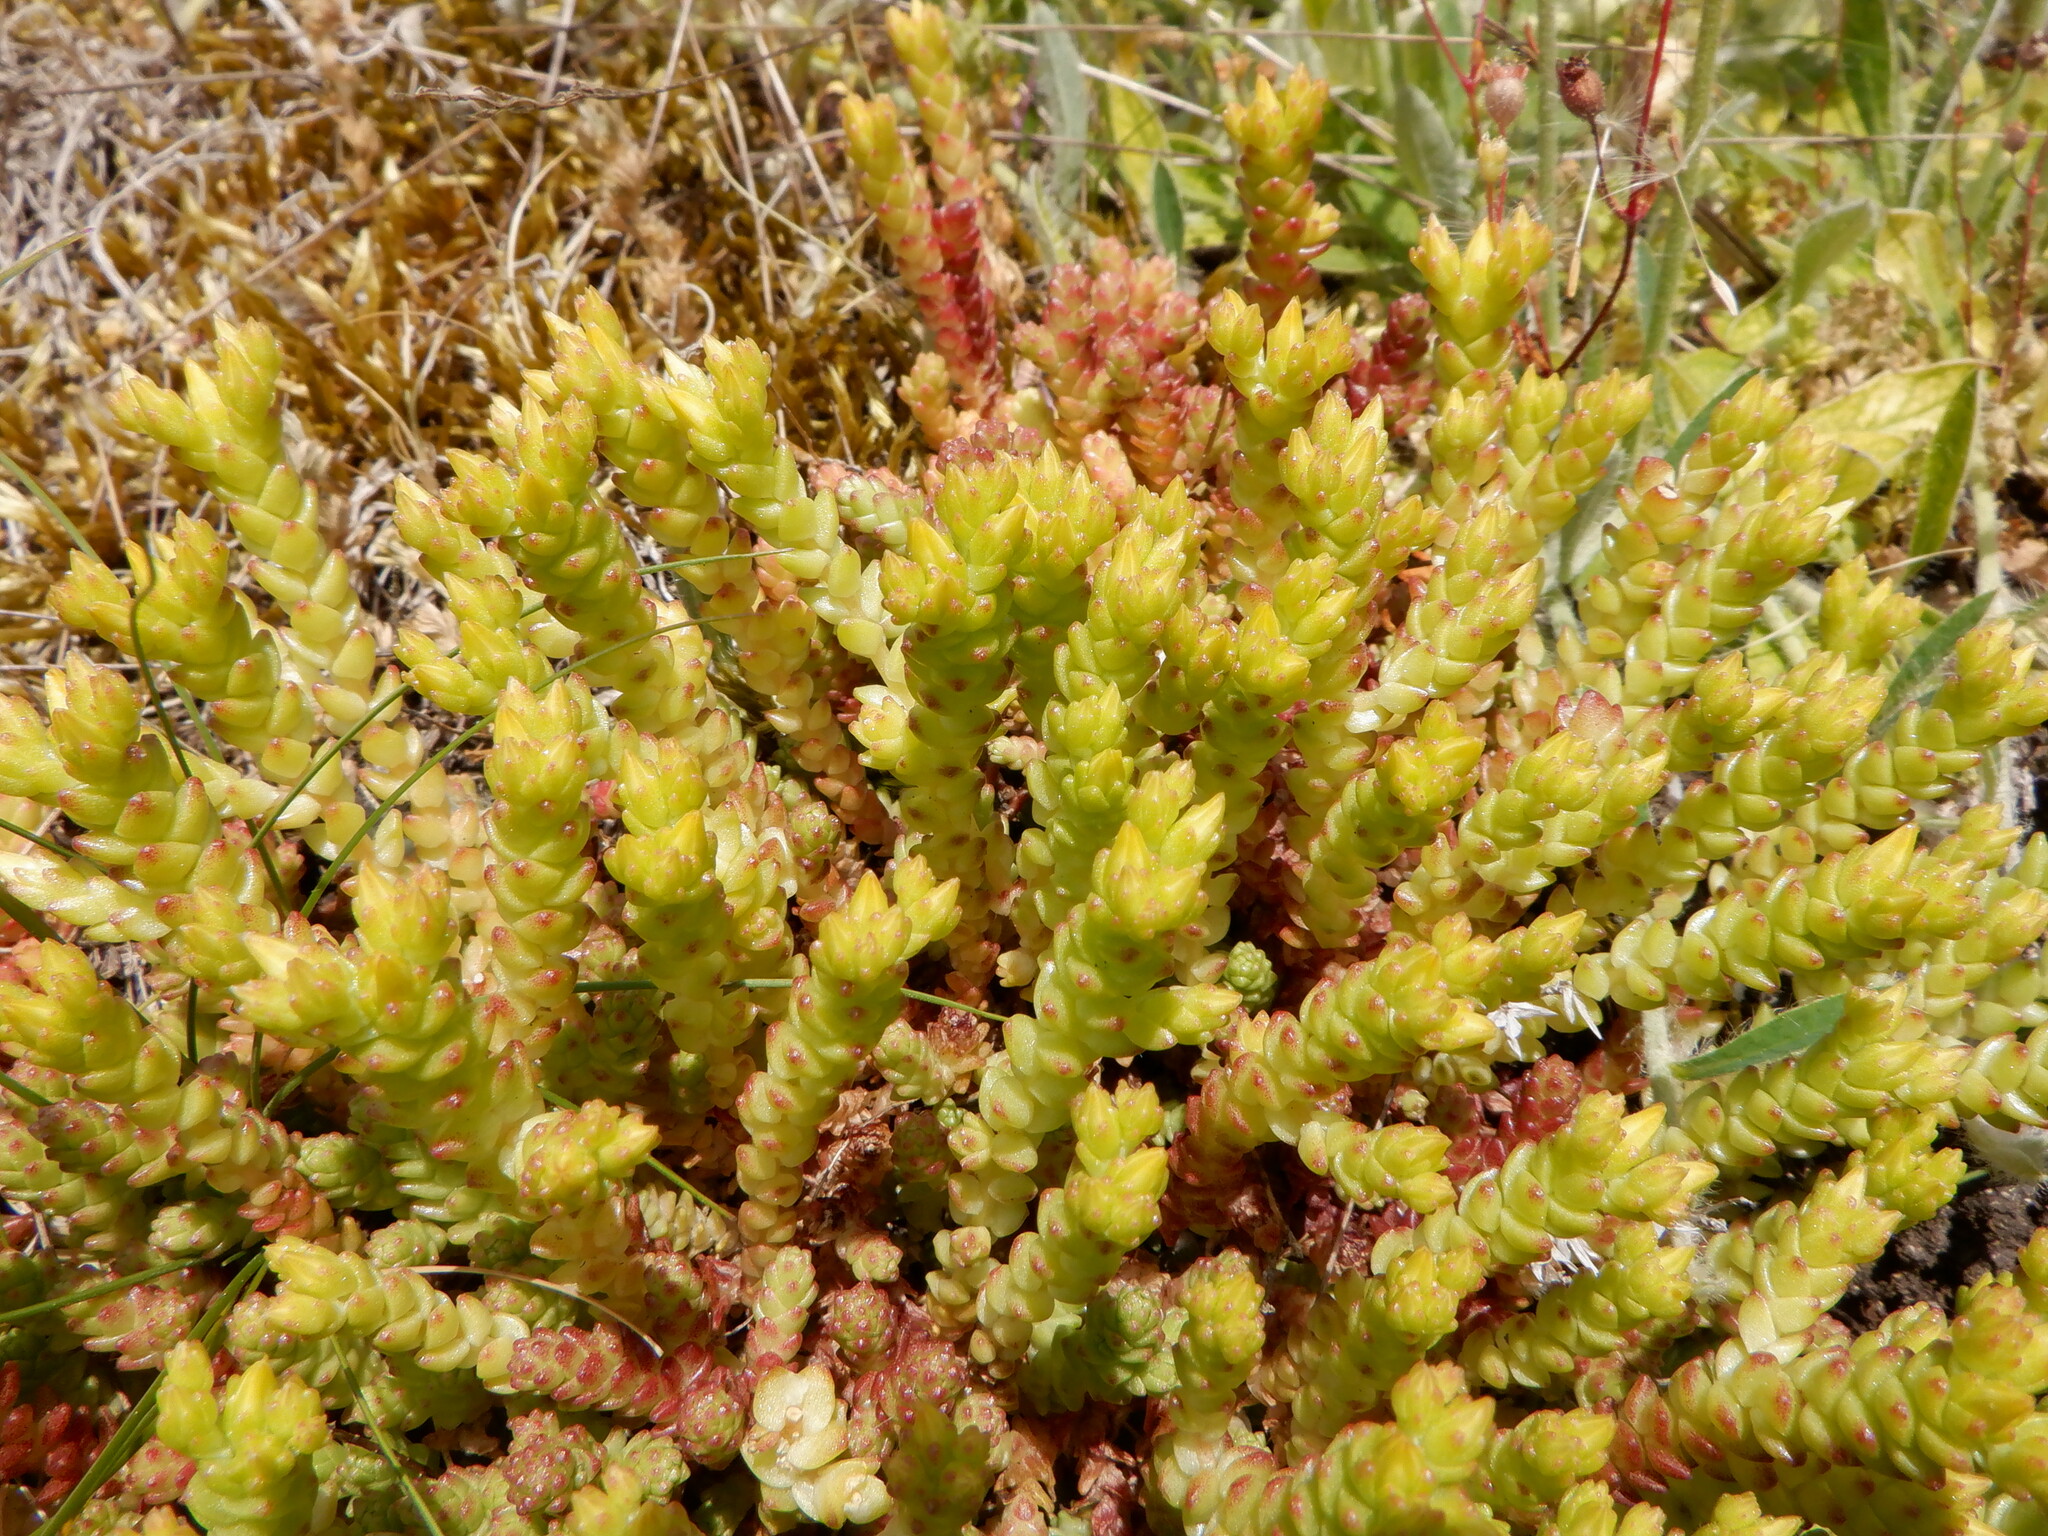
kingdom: Plantae
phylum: Tracheophyta
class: Magnoliopsida
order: Saxifragales
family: Crassulaceae
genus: Sedum
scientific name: Sedum acre
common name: Biting stonecrop
